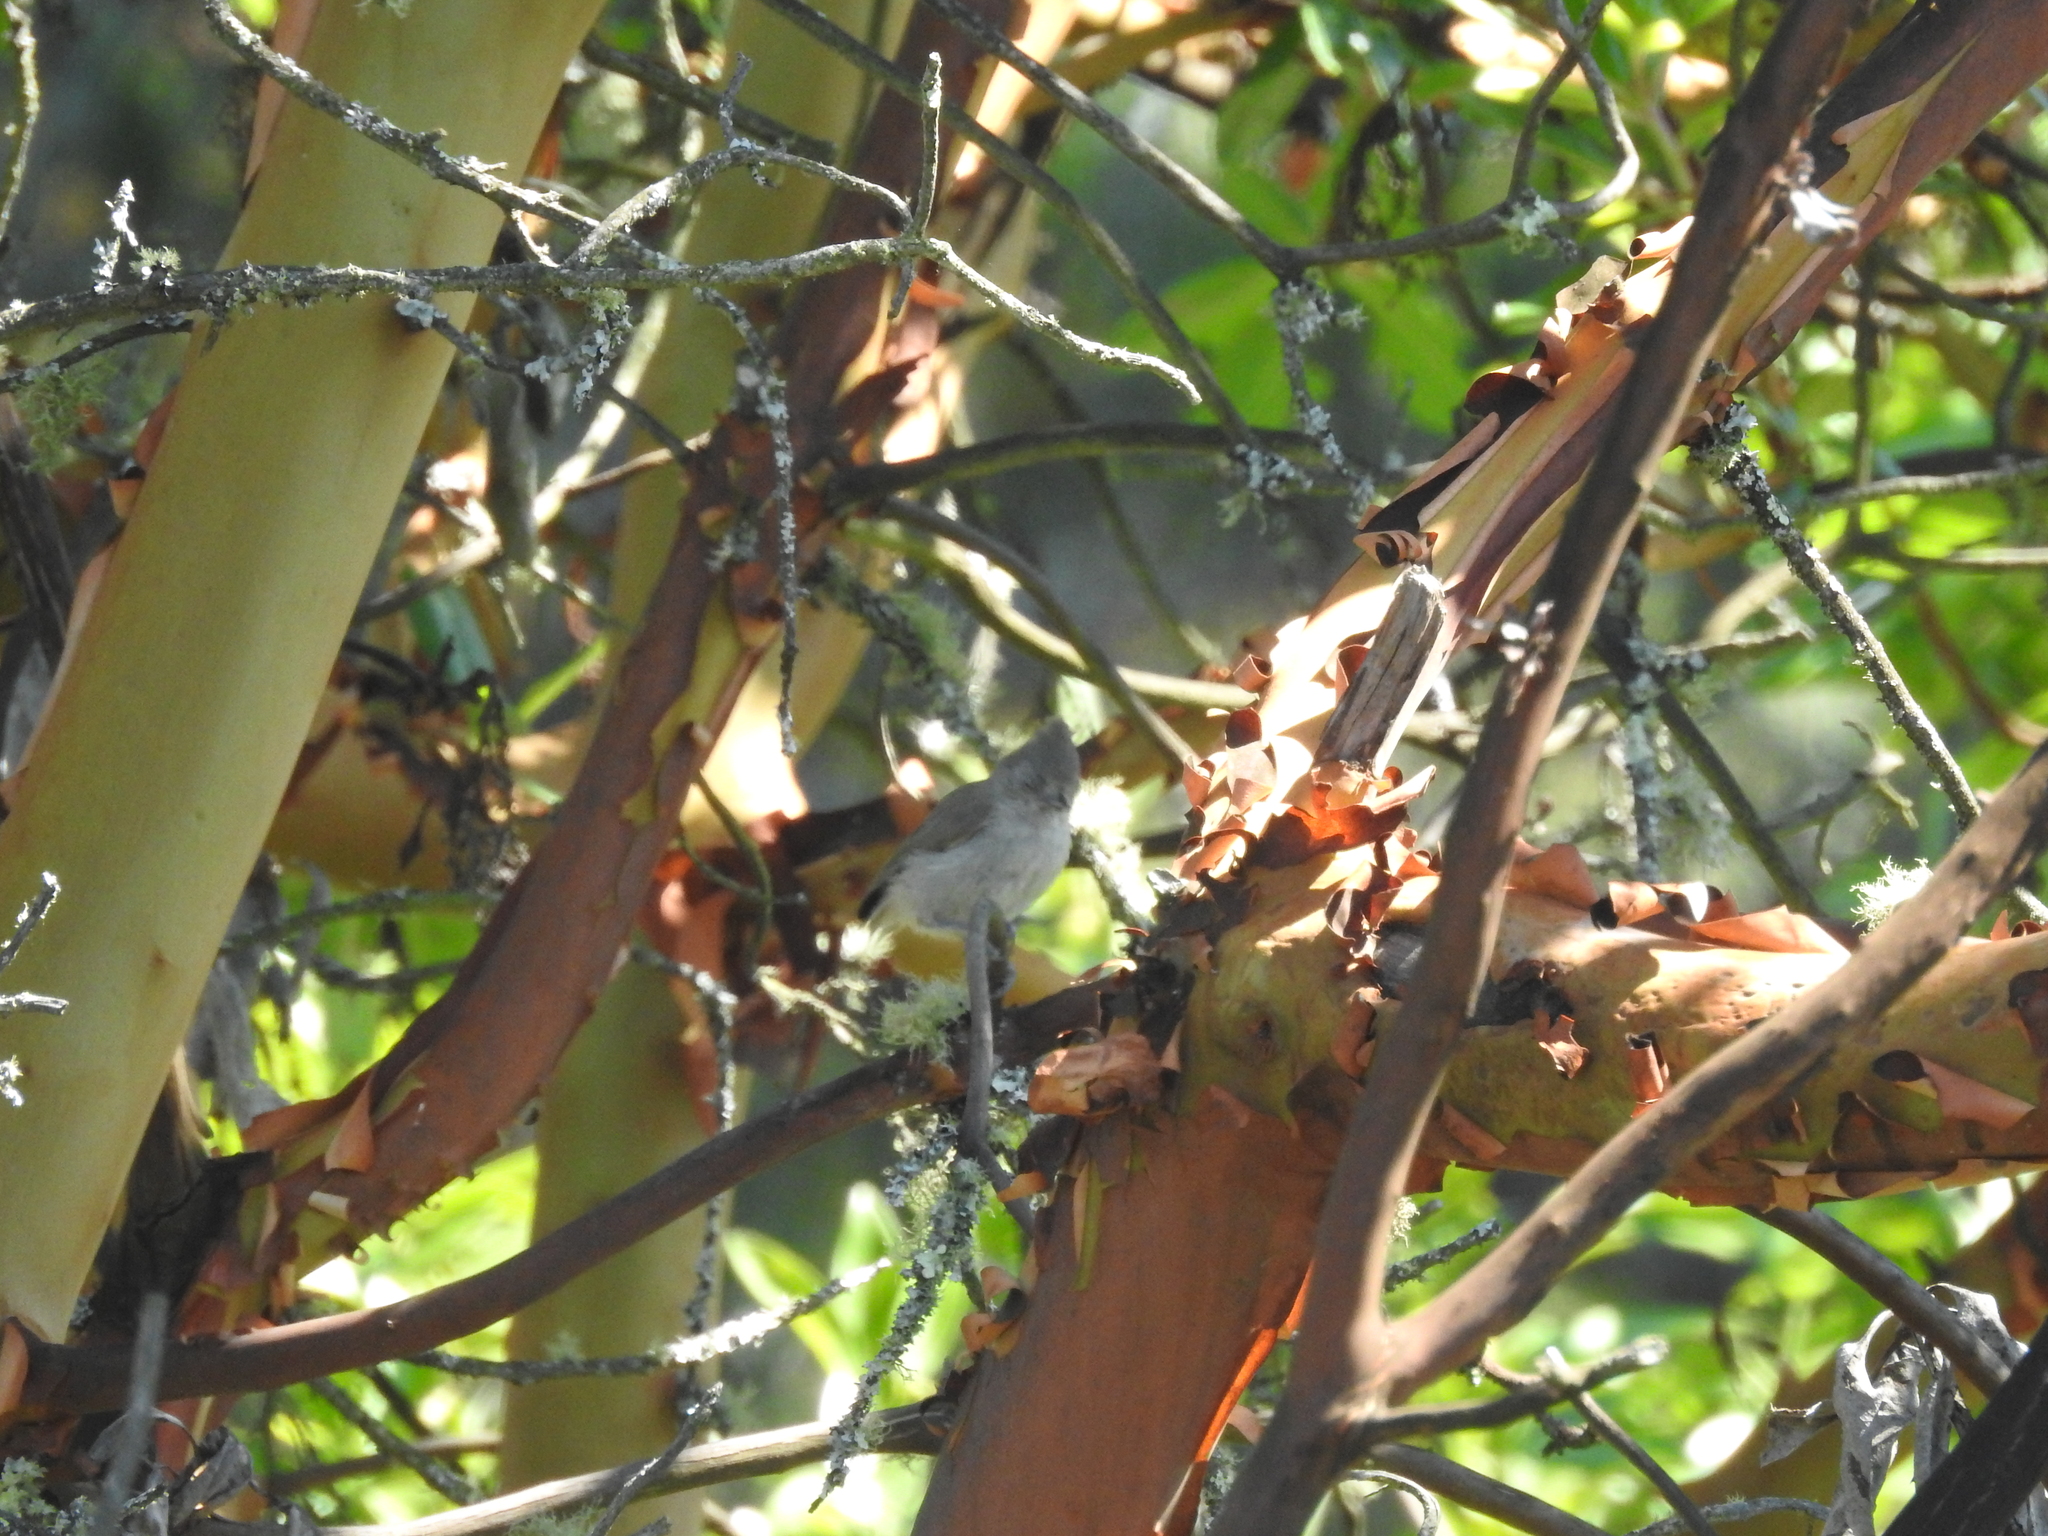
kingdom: Animalia
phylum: Chordata
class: Aves
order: Passeriformes
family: Paridae
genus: Baeolophus
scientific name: Baeolophus inornatus
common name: Oak titmouse
